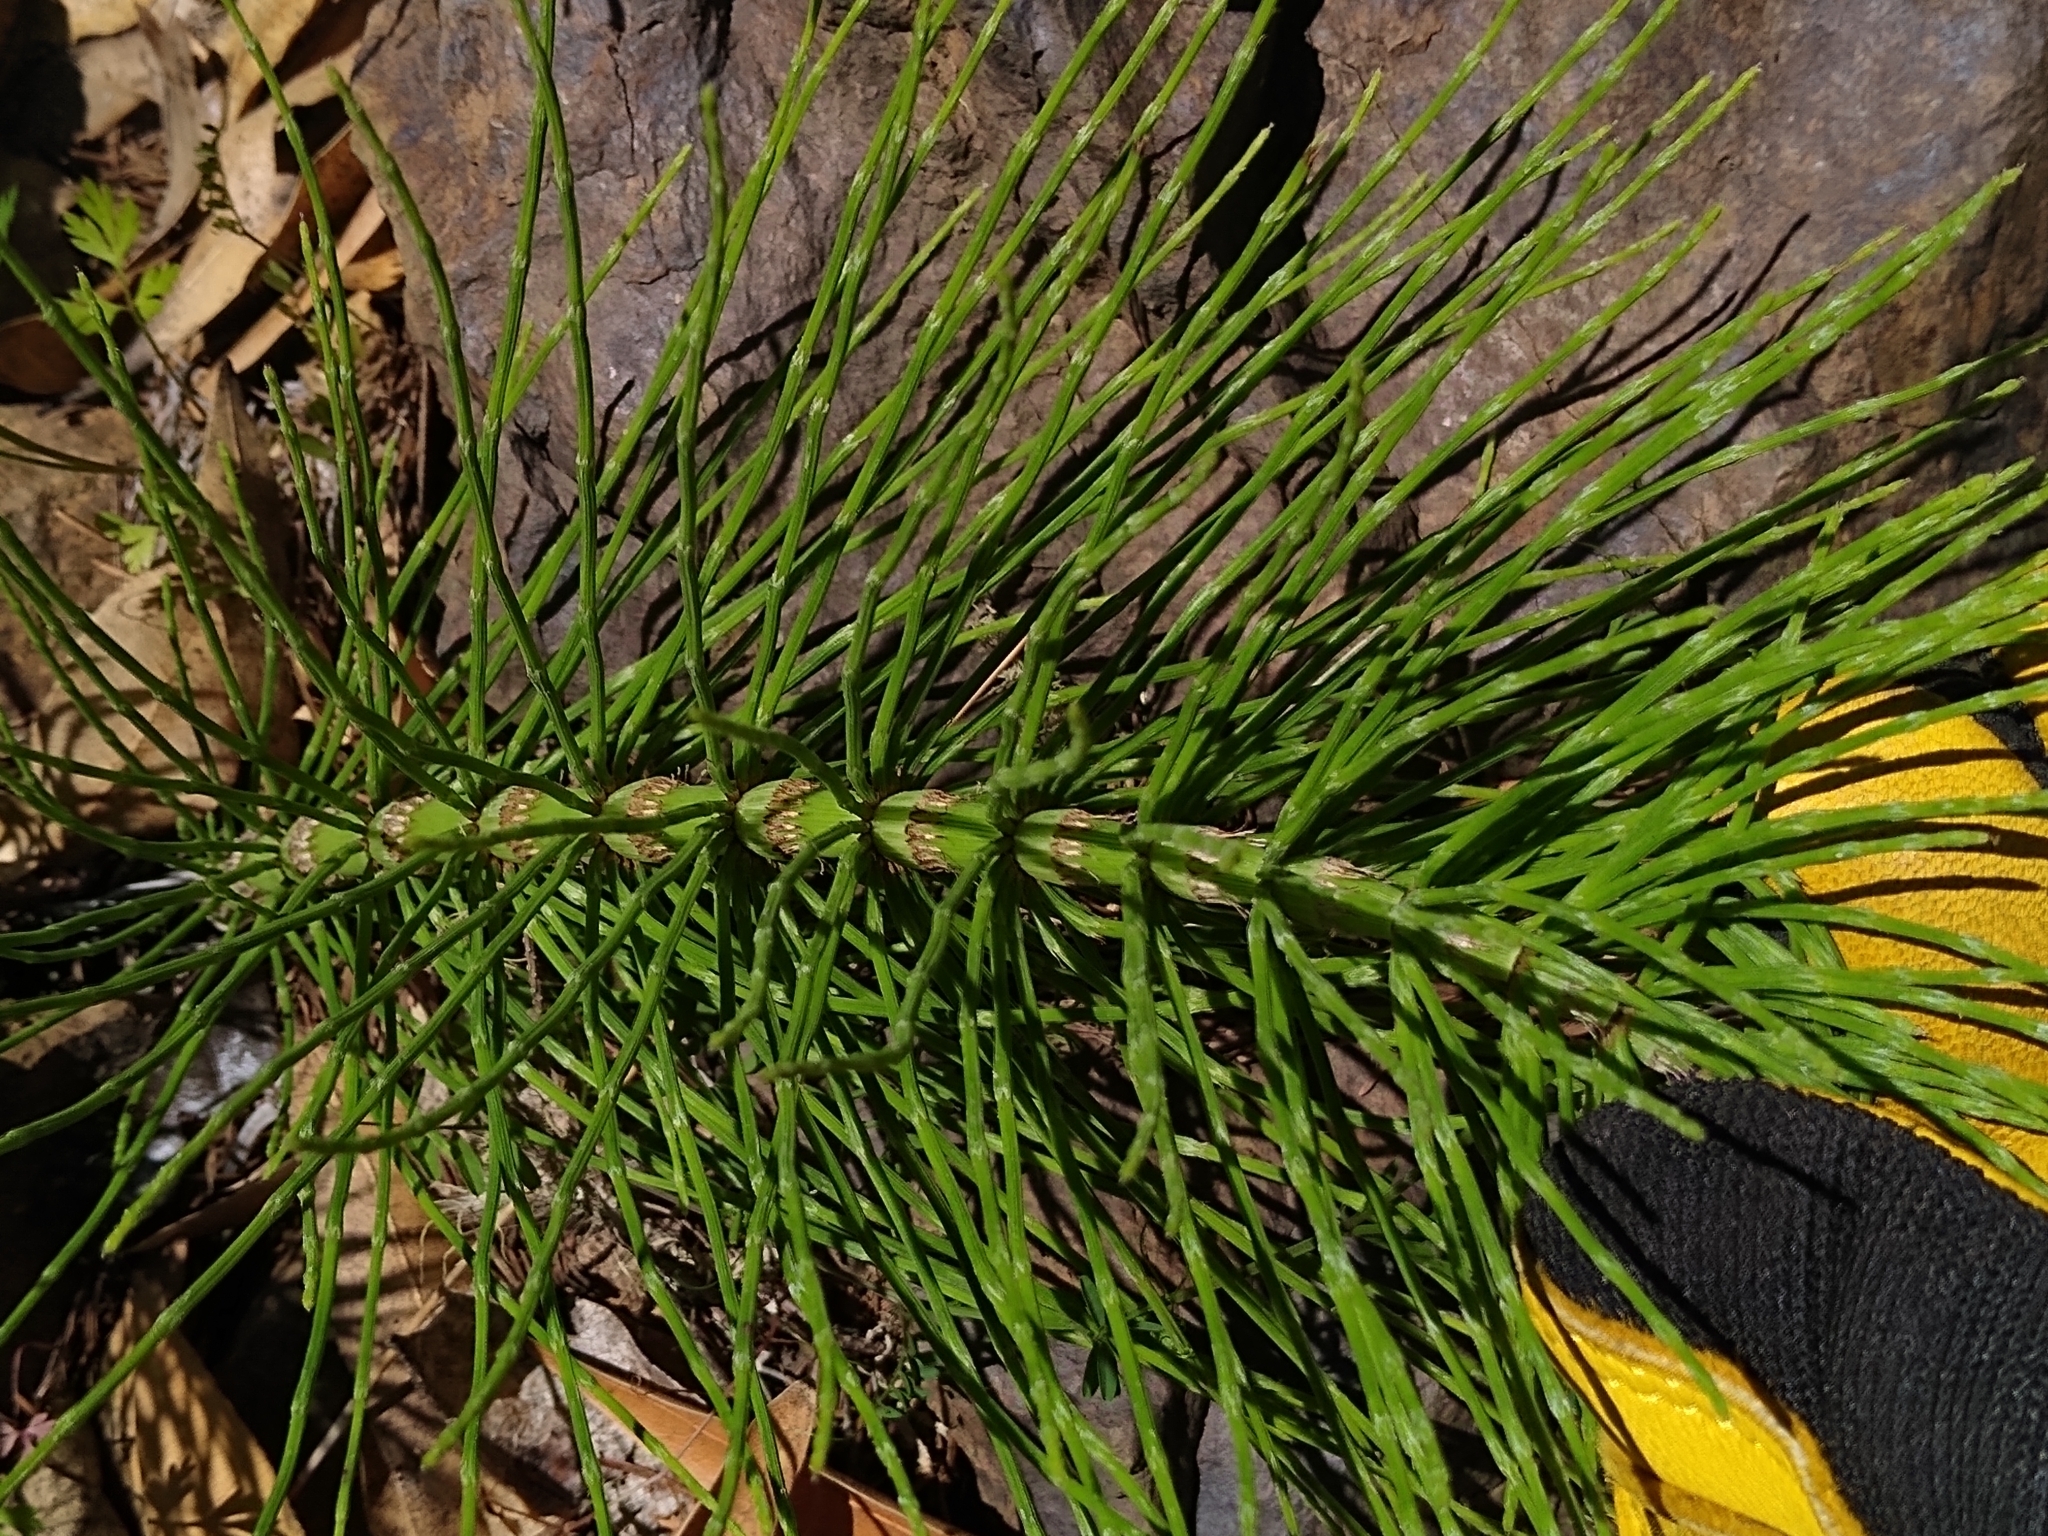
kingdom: Plantae
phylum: Tracheophyta
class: Polypodiopsida
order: Equisetales
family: Equisetaceae
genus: Equisetum
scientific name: Equisetum telmateia
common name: Great horsetail
